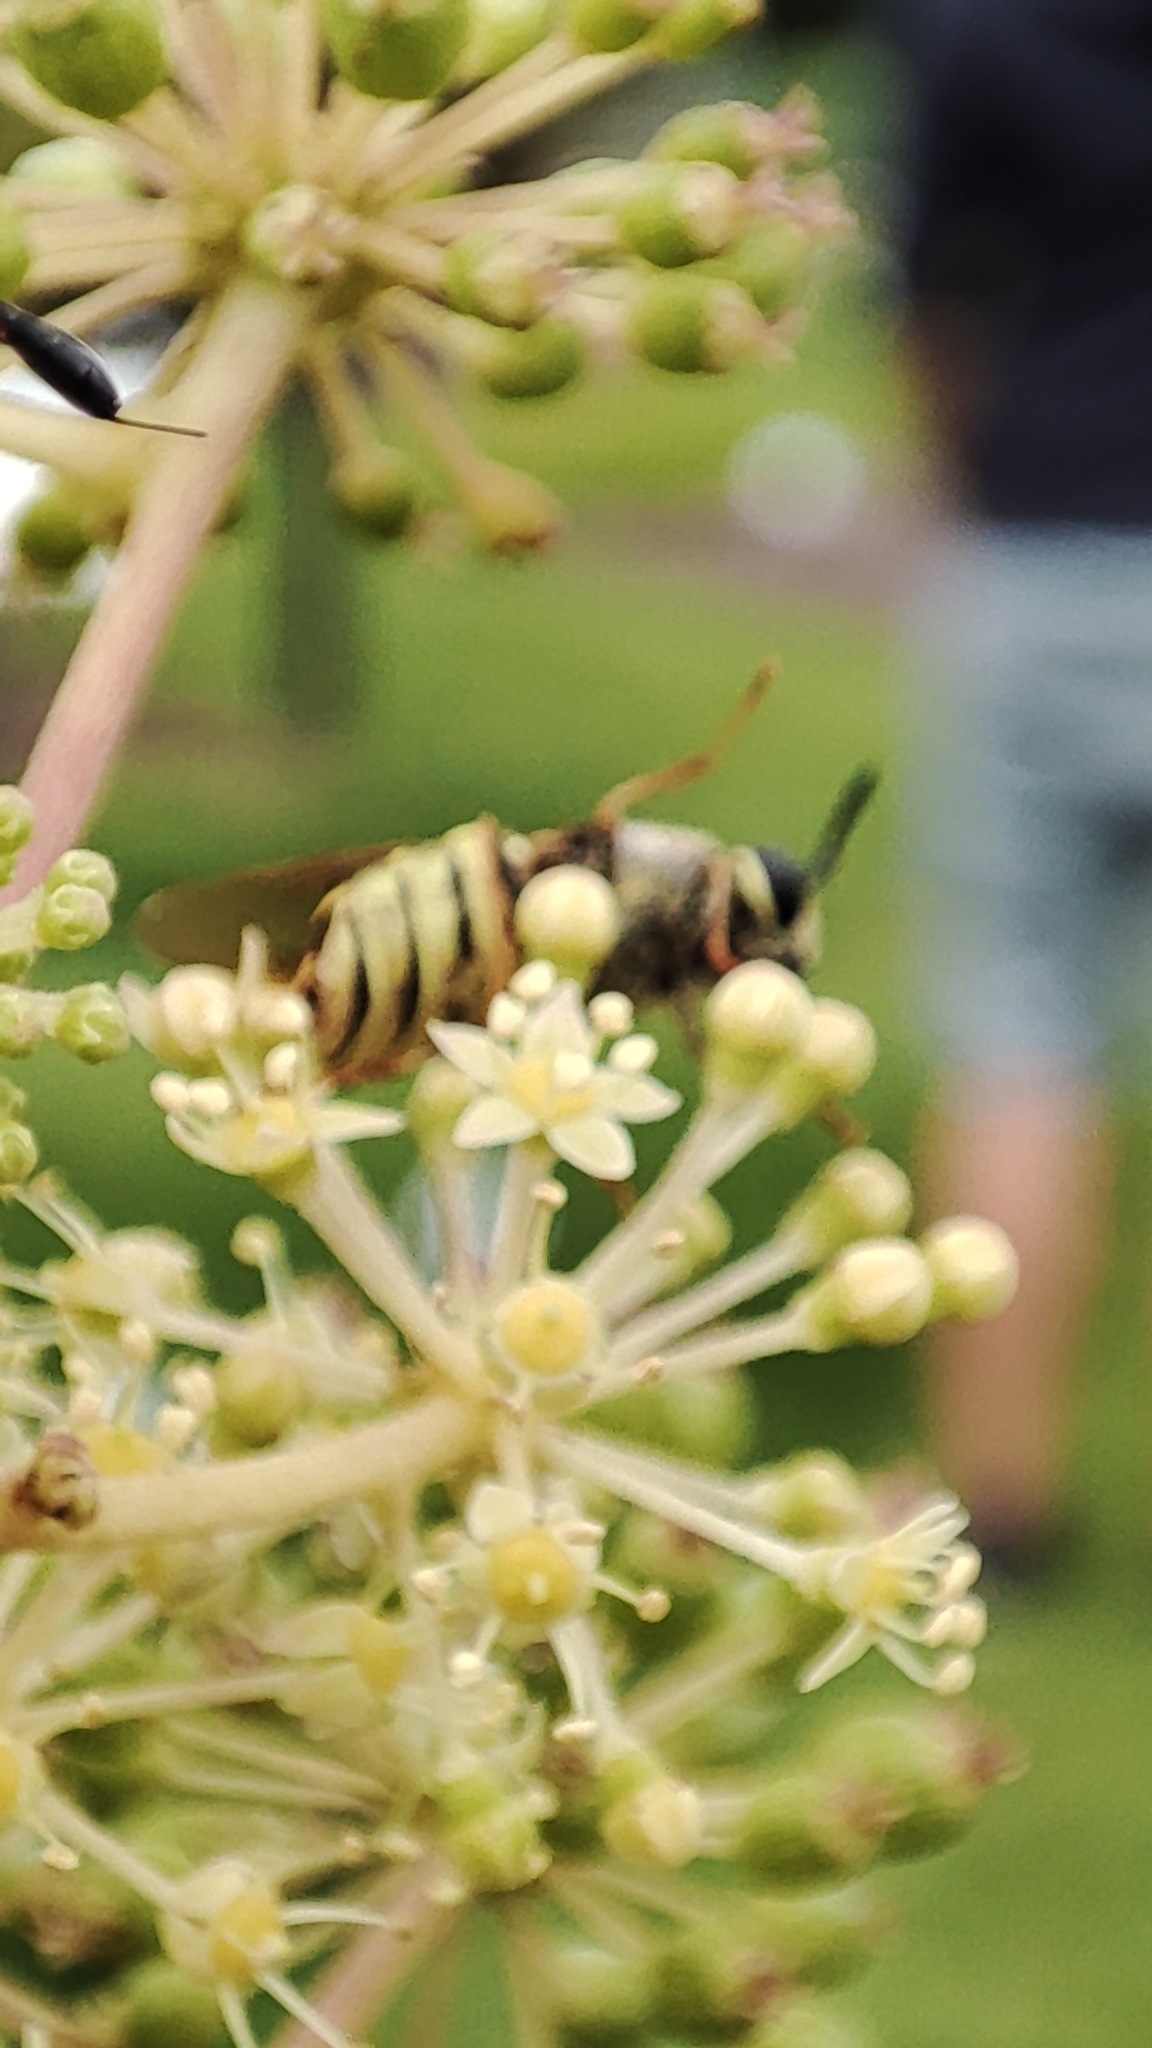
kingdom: Animalia
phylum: Arthropoda
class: Insecta
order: Diptera
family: Stratiomyidae
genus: Stratiomys
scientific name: Stratiomys potamida
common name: Banded general
